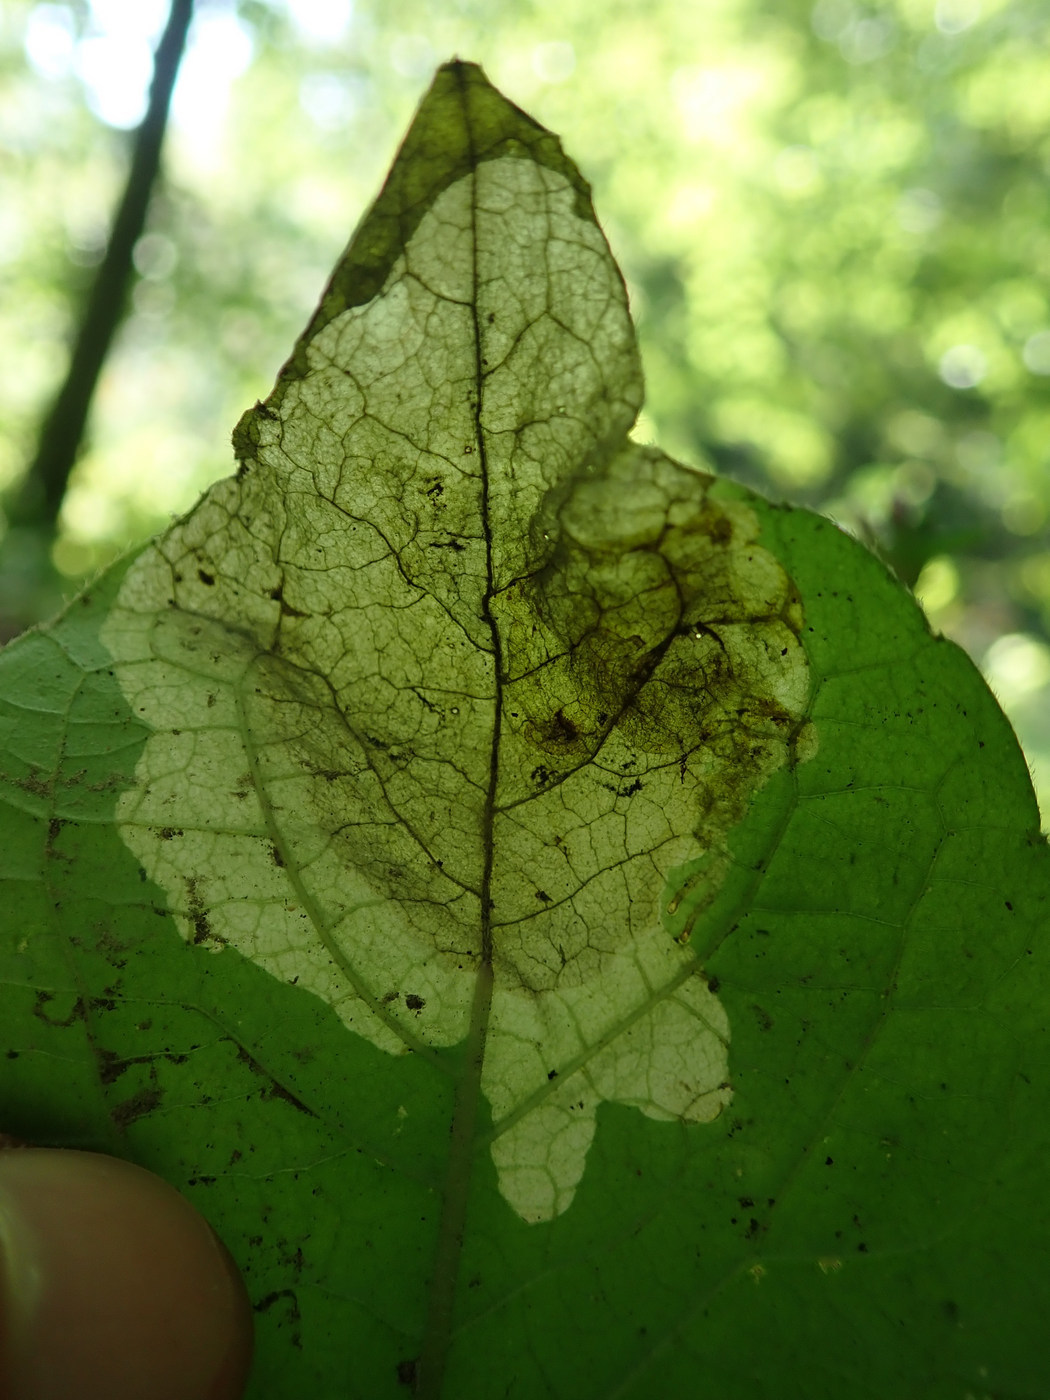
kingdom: Animalia
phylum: Arthropoda
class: Insecta
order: Diptera
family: Agromyzidae
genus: Nemorimyza
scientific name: Nemorimyza posticata
